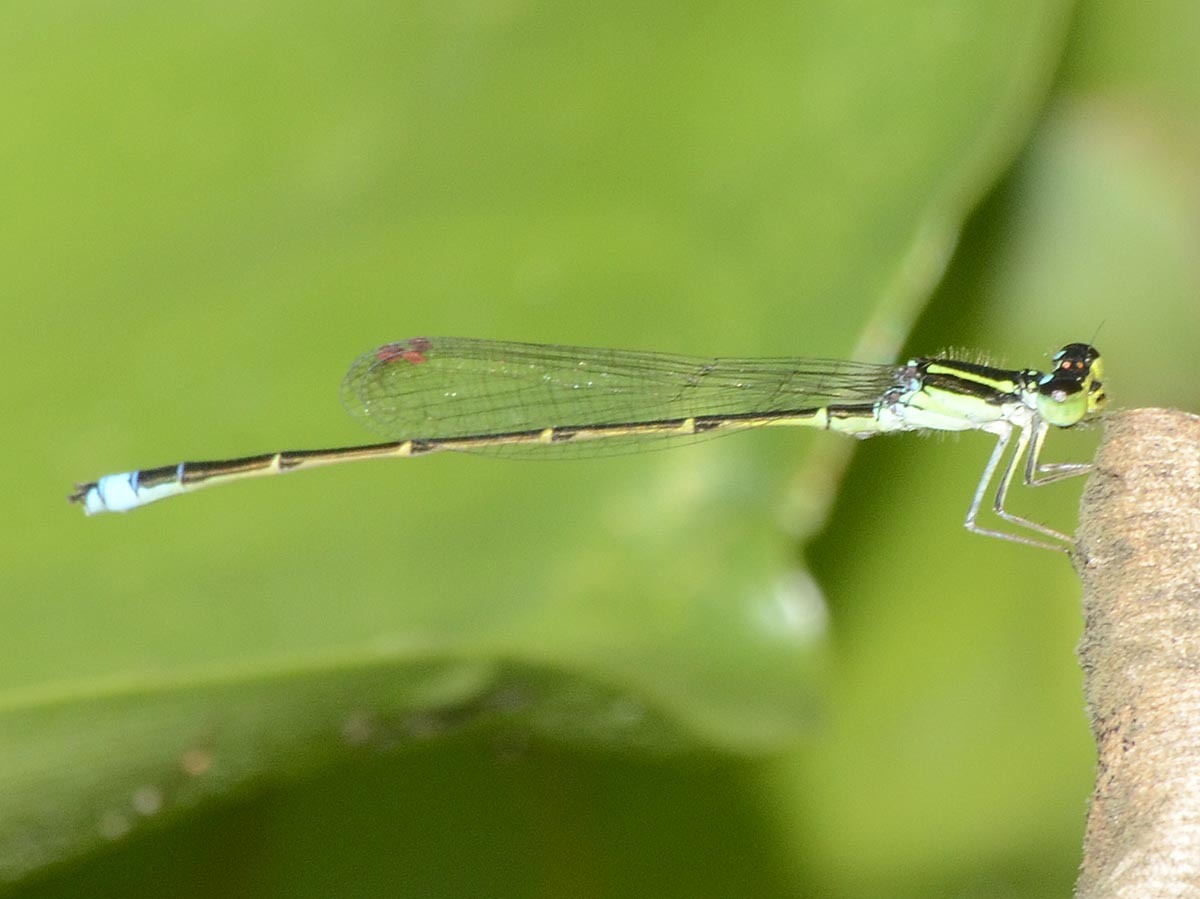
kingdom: Animalia
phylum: Arthropoda
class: Insecta
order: Odonata
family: Coenagrionidae
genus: Homeoura
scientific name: Homeoura nepos
